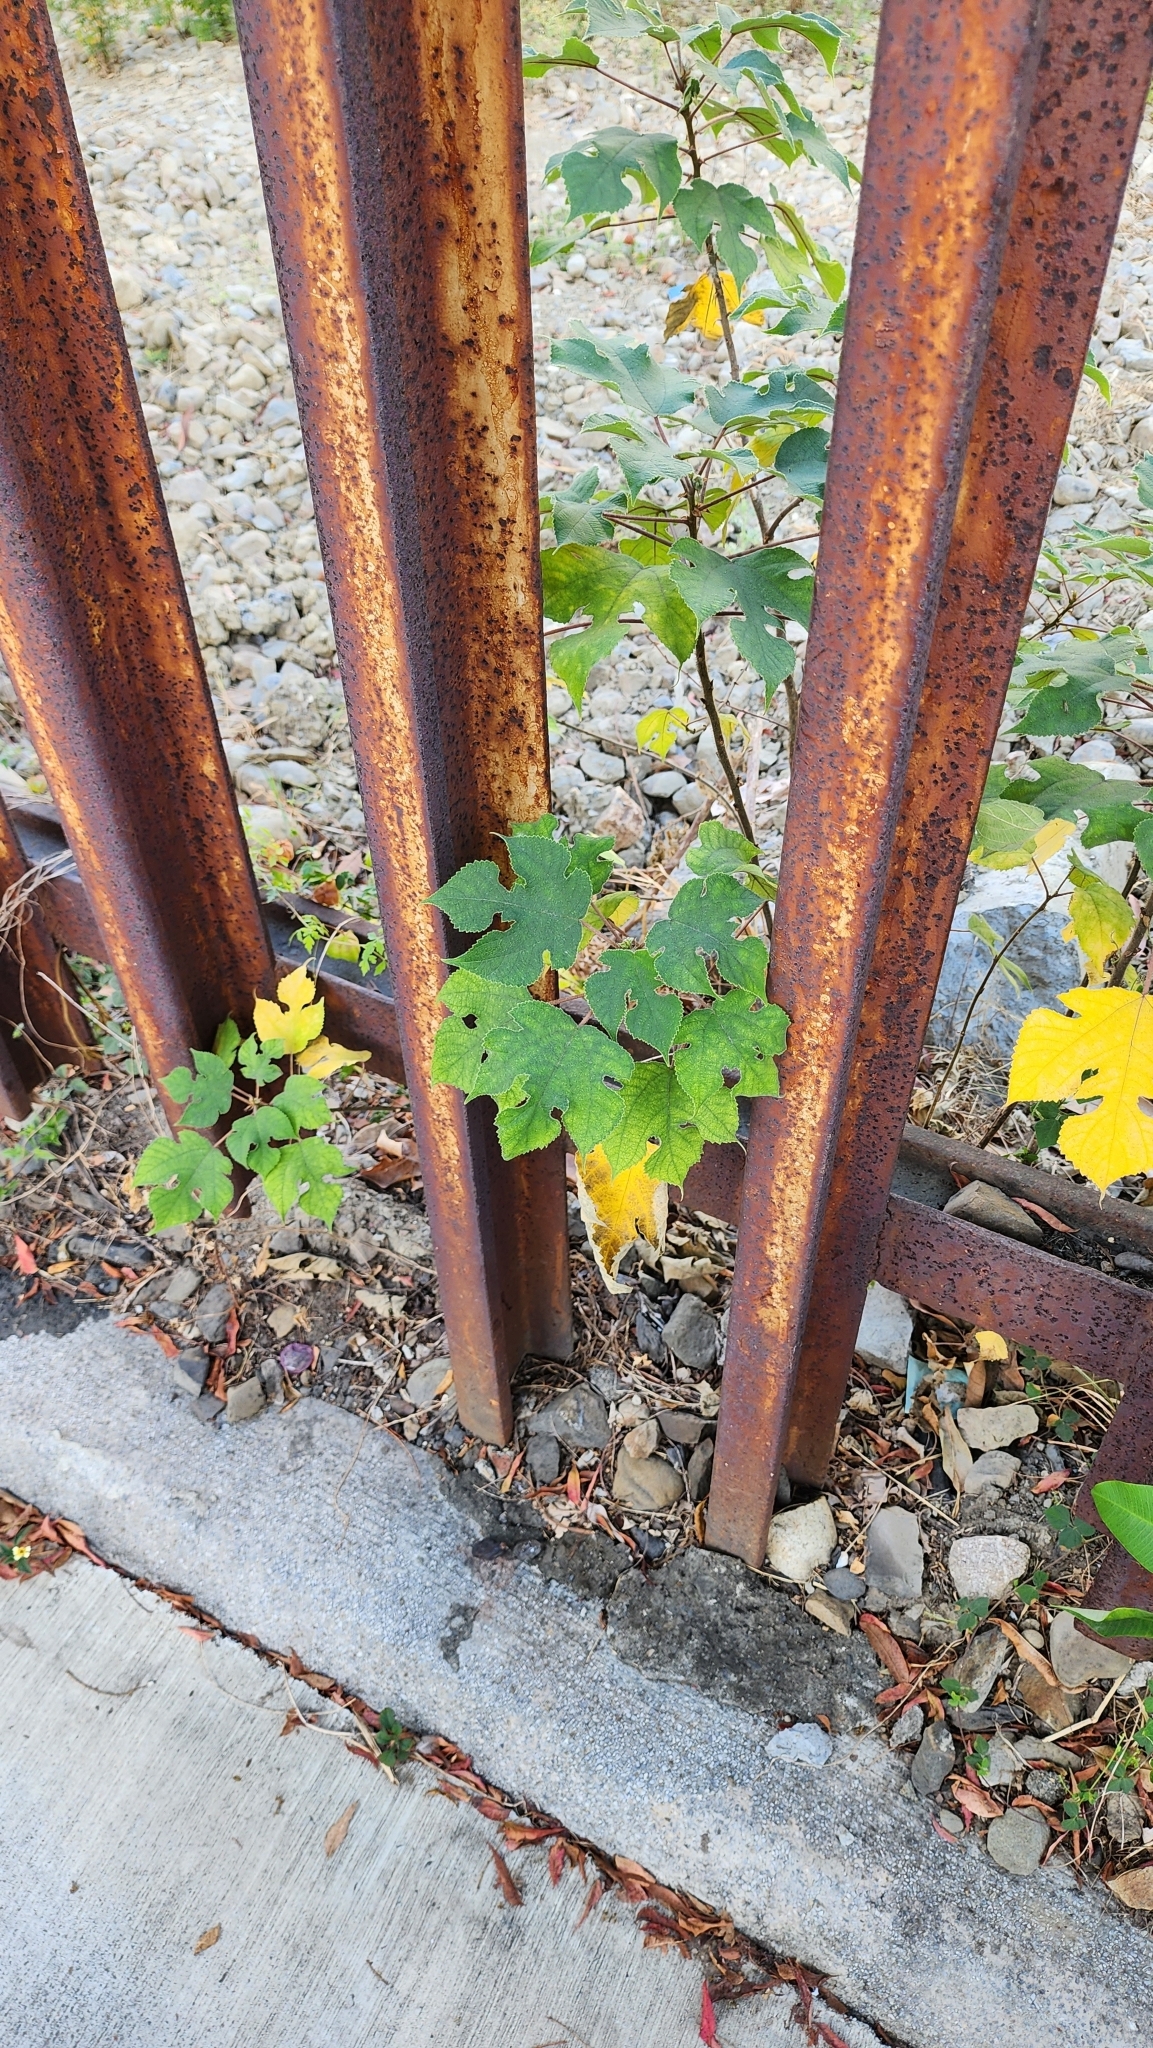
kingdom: Plantae
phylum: Tracheophyta
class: Magnoliopsida
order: Rosales
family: Moraceae
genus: Broussonetia
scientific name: Broussonetia papyrifera
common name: Paper mulberry
